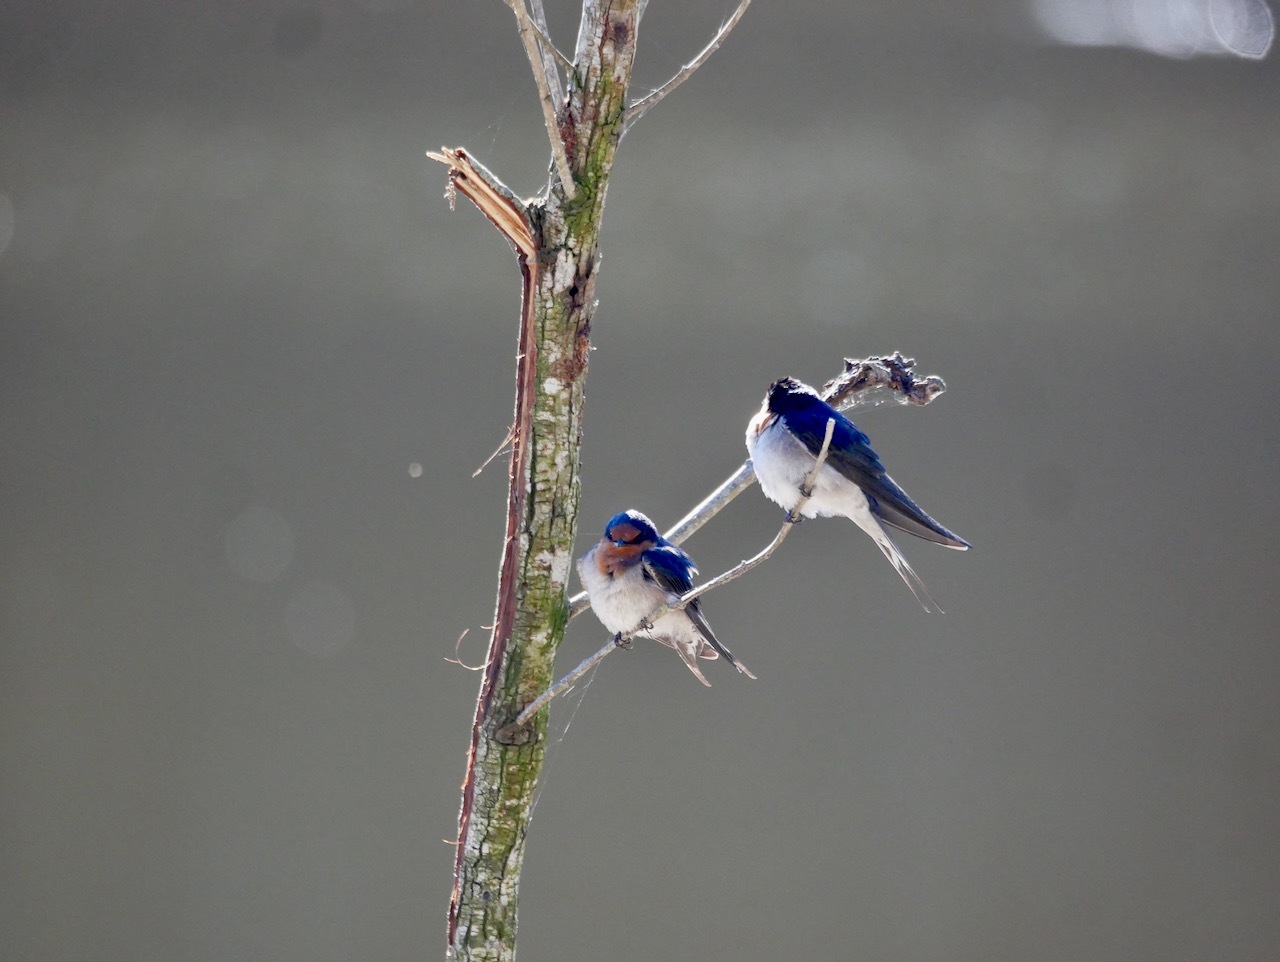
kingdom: Animalia
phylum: Chordata
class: Aves
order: Passeriformes
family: Hirundinidae
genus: Hirundo
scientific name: Hirundo neoxena
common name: Welcome swallow
